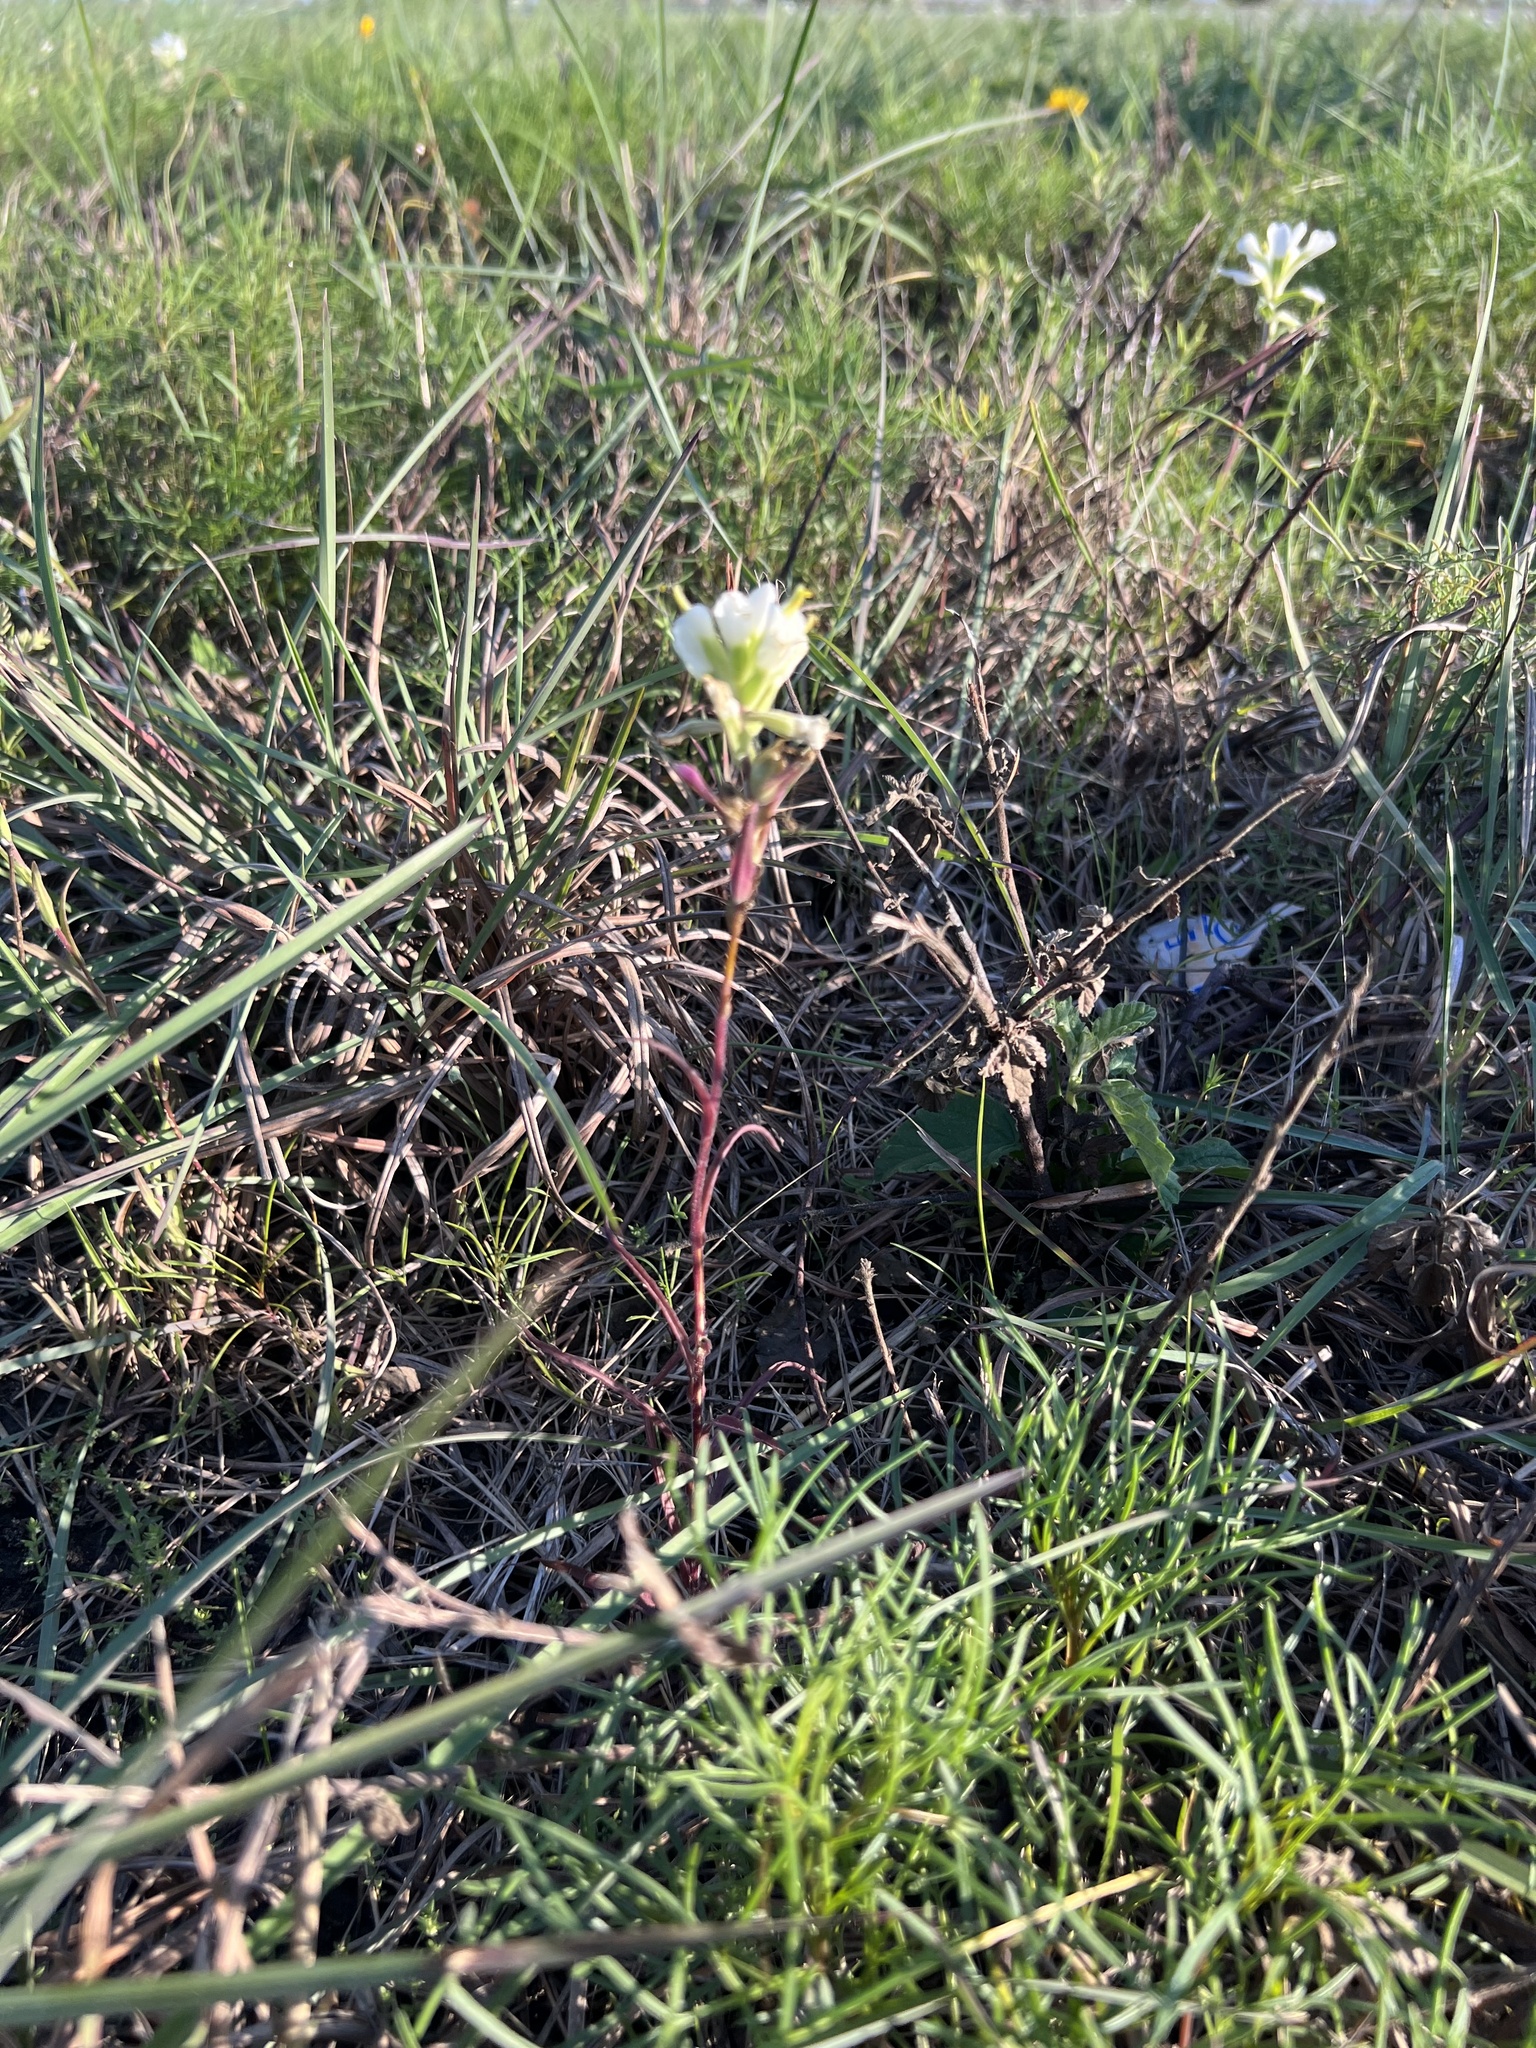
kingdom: Plantae
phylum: Tracheophyta
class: Magnoliopsida
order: Lamiales
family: Orobanchaceae
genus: Castilleja
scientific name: Castilleja halophila
